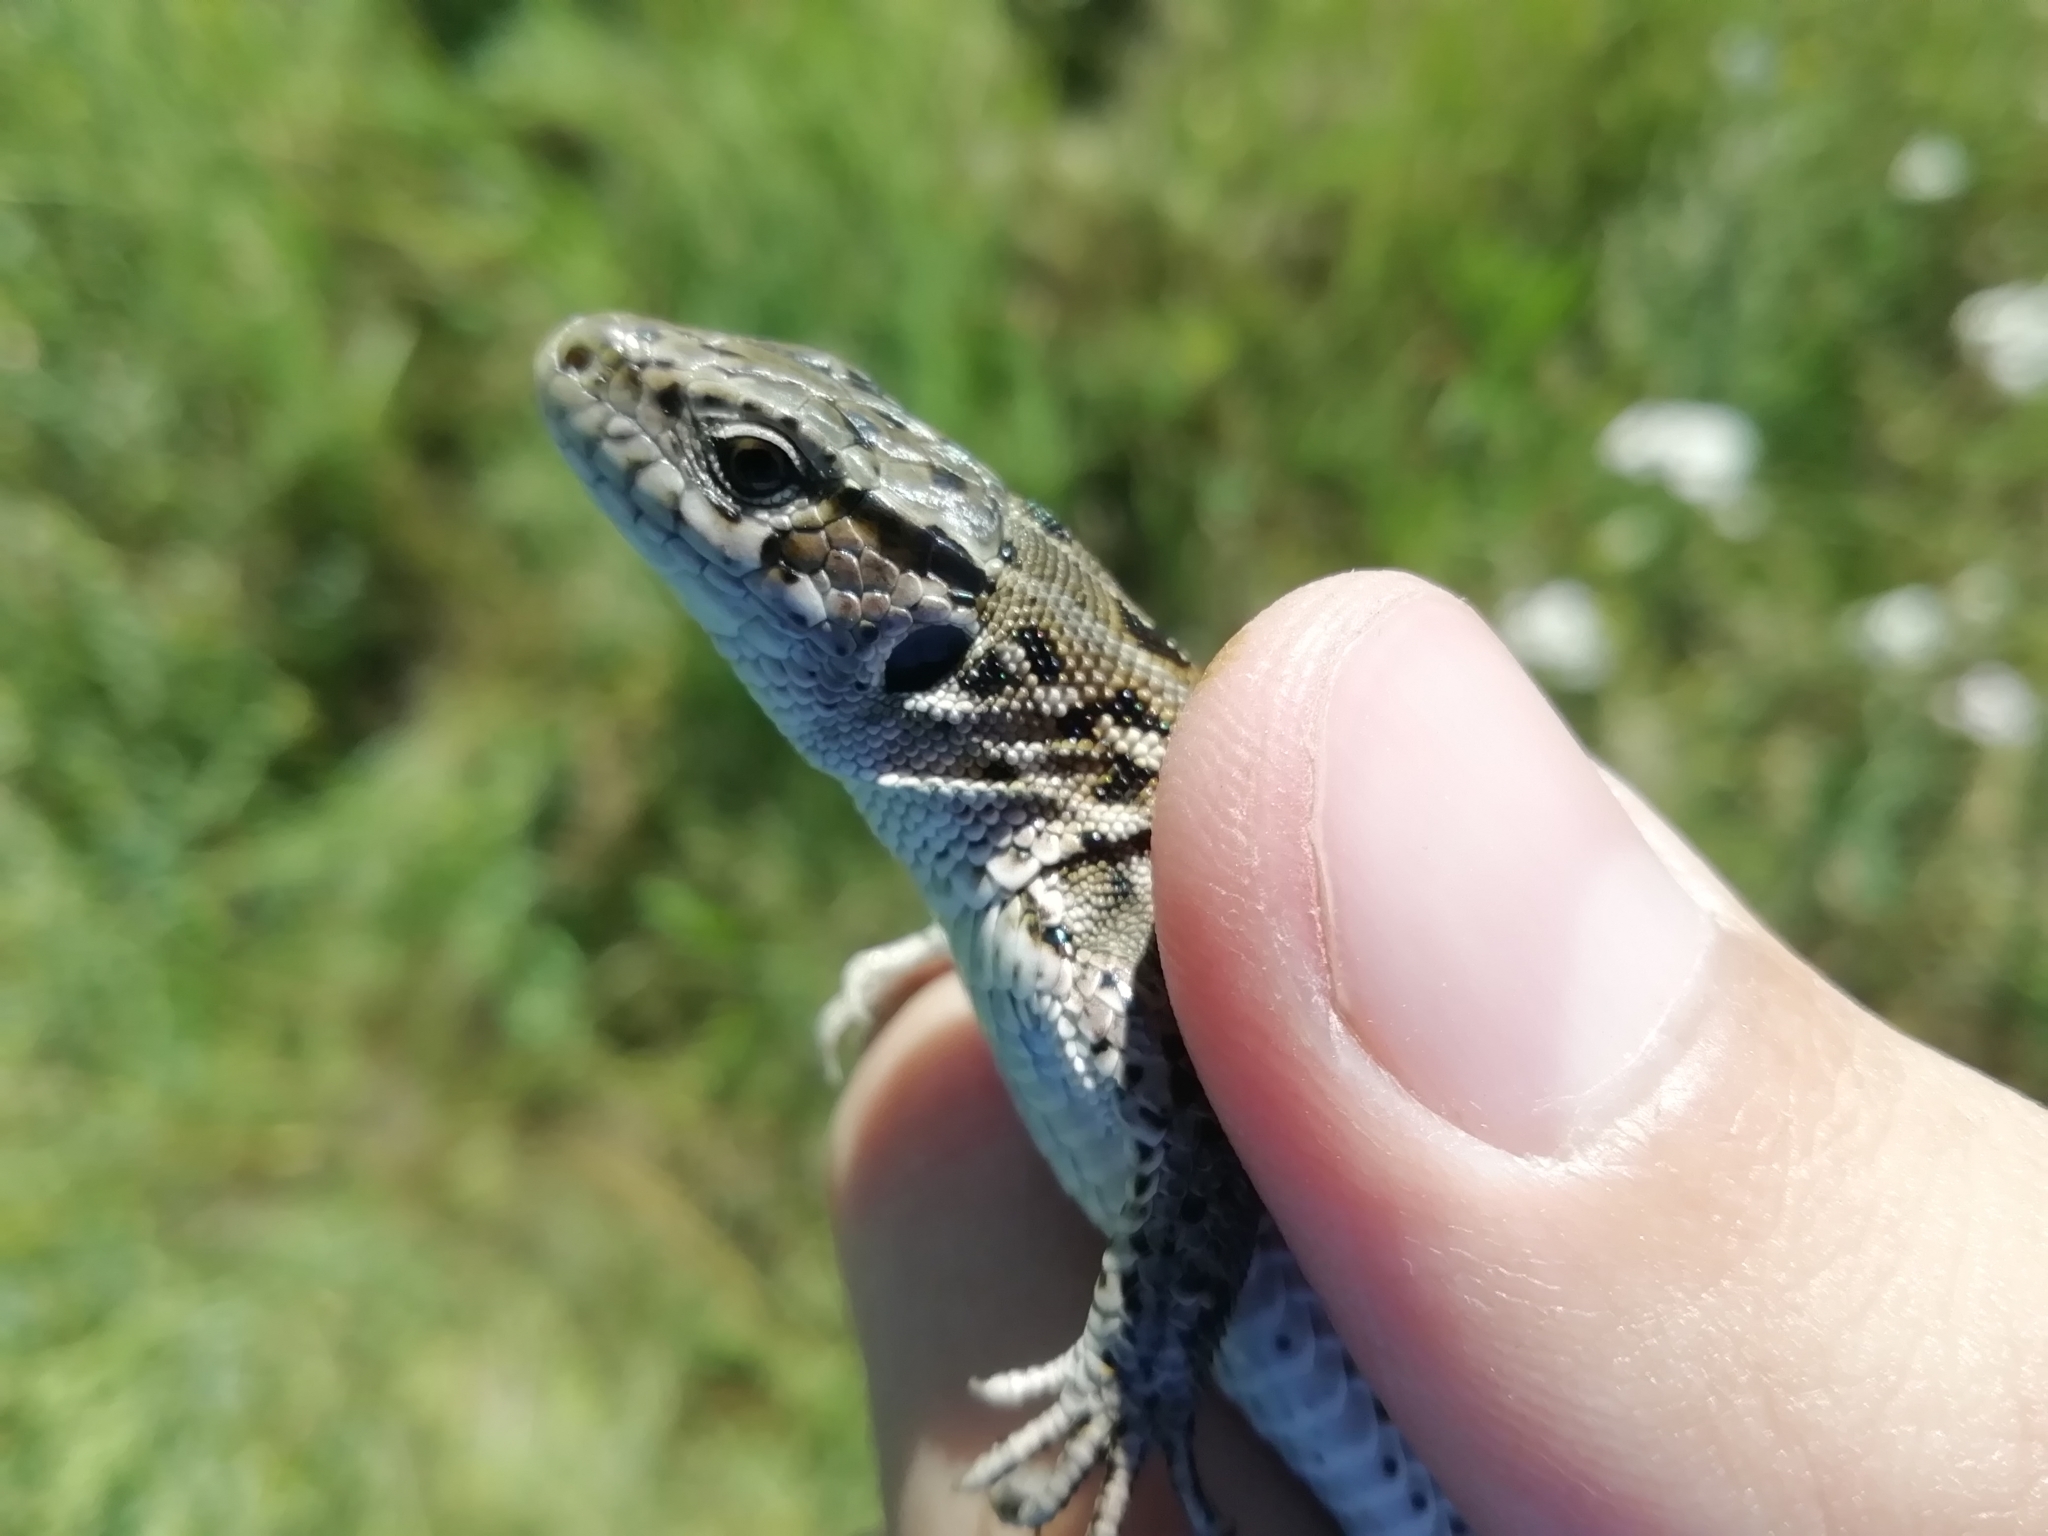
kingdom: Animalia
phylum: Chordata
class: Squamata
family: Lacertidae
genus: Lacerta
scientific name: Lacerta agilis
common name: Sand lizard
